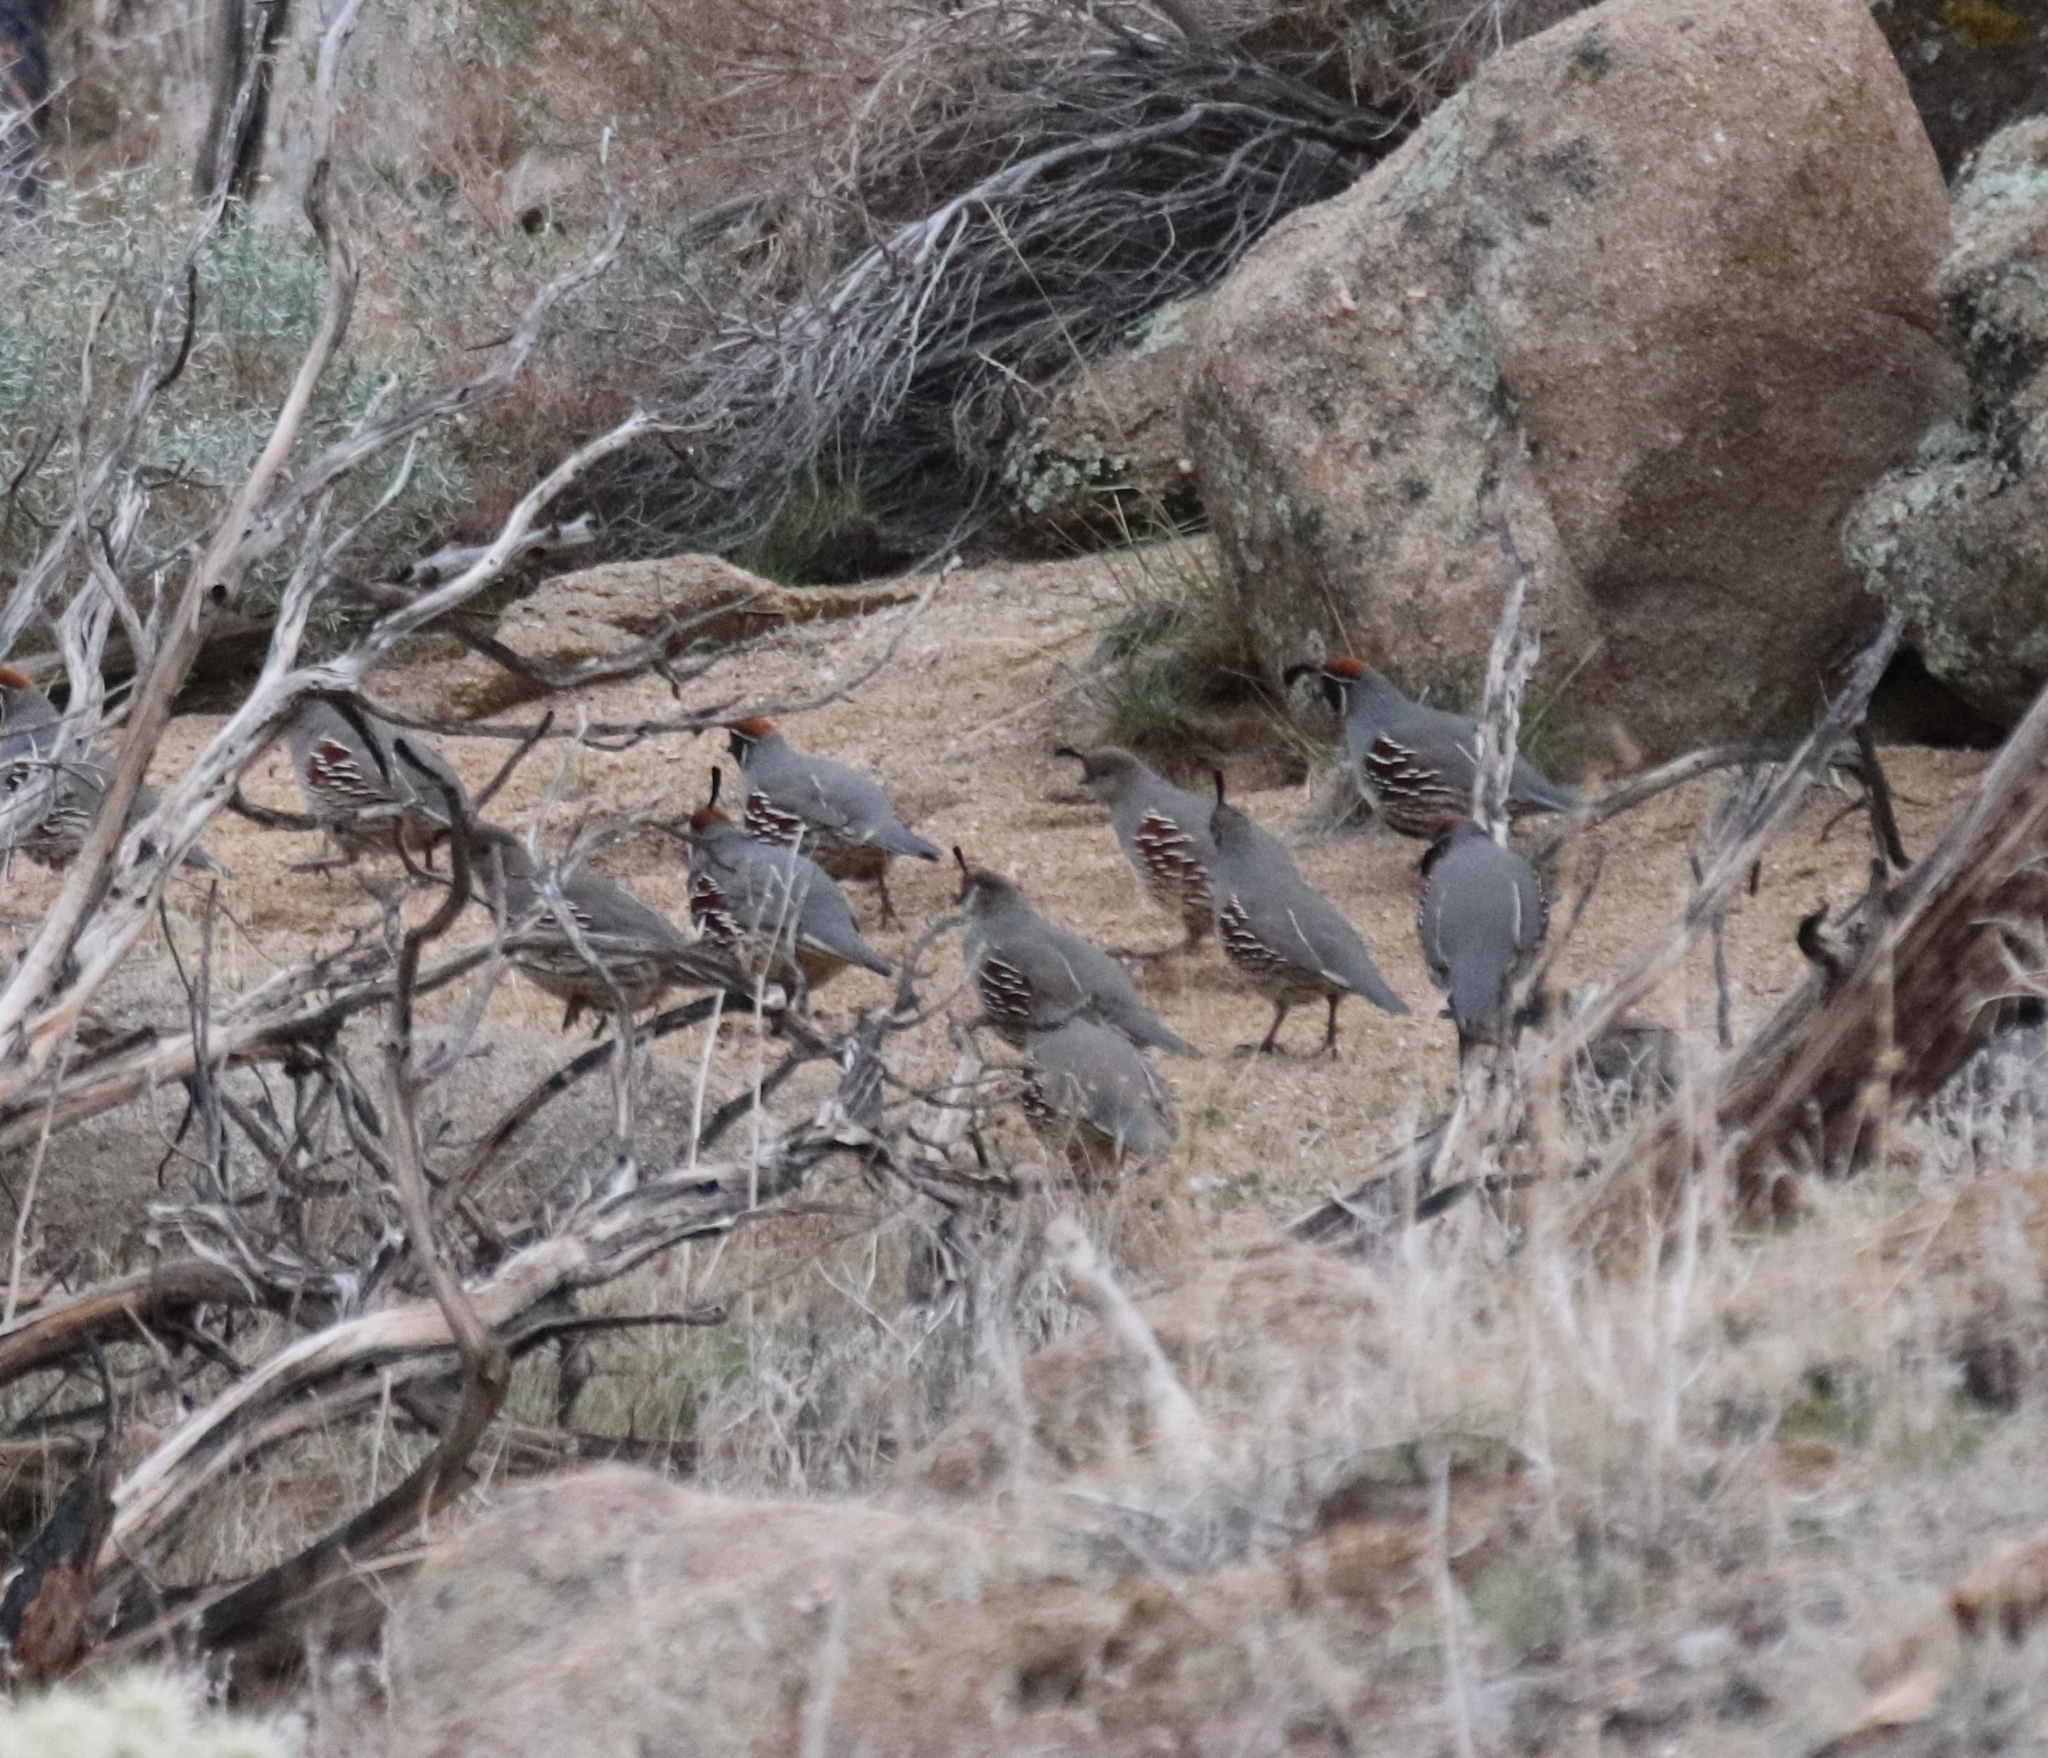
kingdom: Animalia
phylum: Chordata
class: Aves
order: Galliformes
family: Odontophoridae
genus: Callipepla
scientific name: Callipepla gambelii
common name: Gambel's quail
